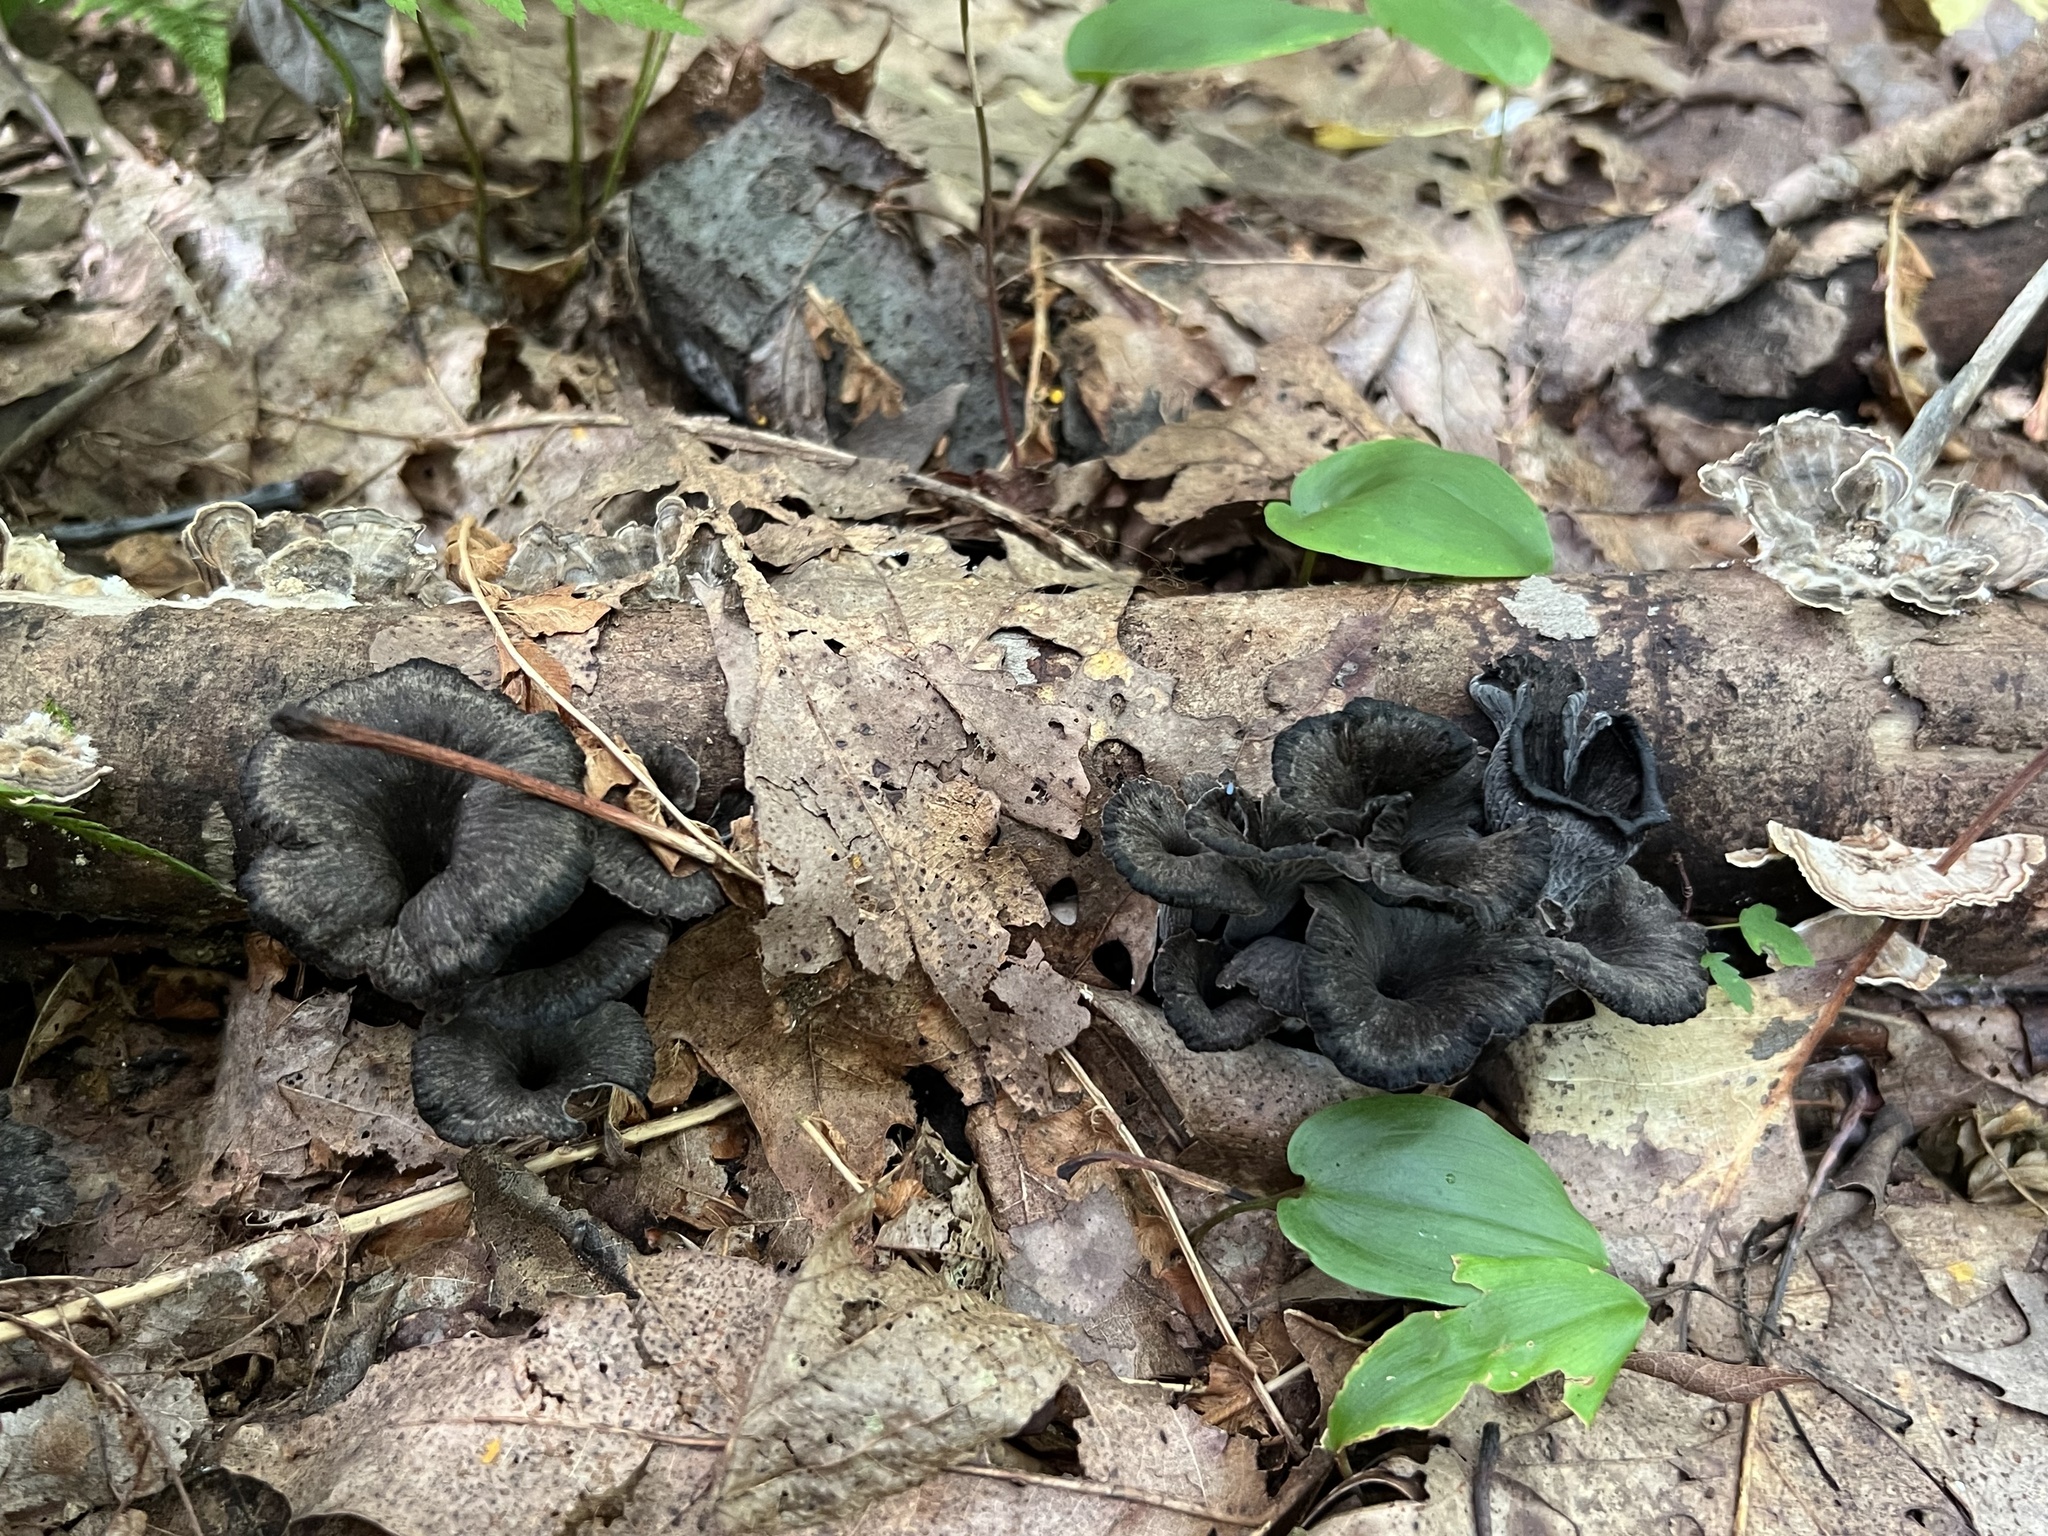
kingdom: Fungi
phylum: Basidiomycota
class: Agaricomycetes
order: Cantharellales
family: Hydnaceae
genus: Craterellus
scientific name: Craterellus caeruleofuscus
